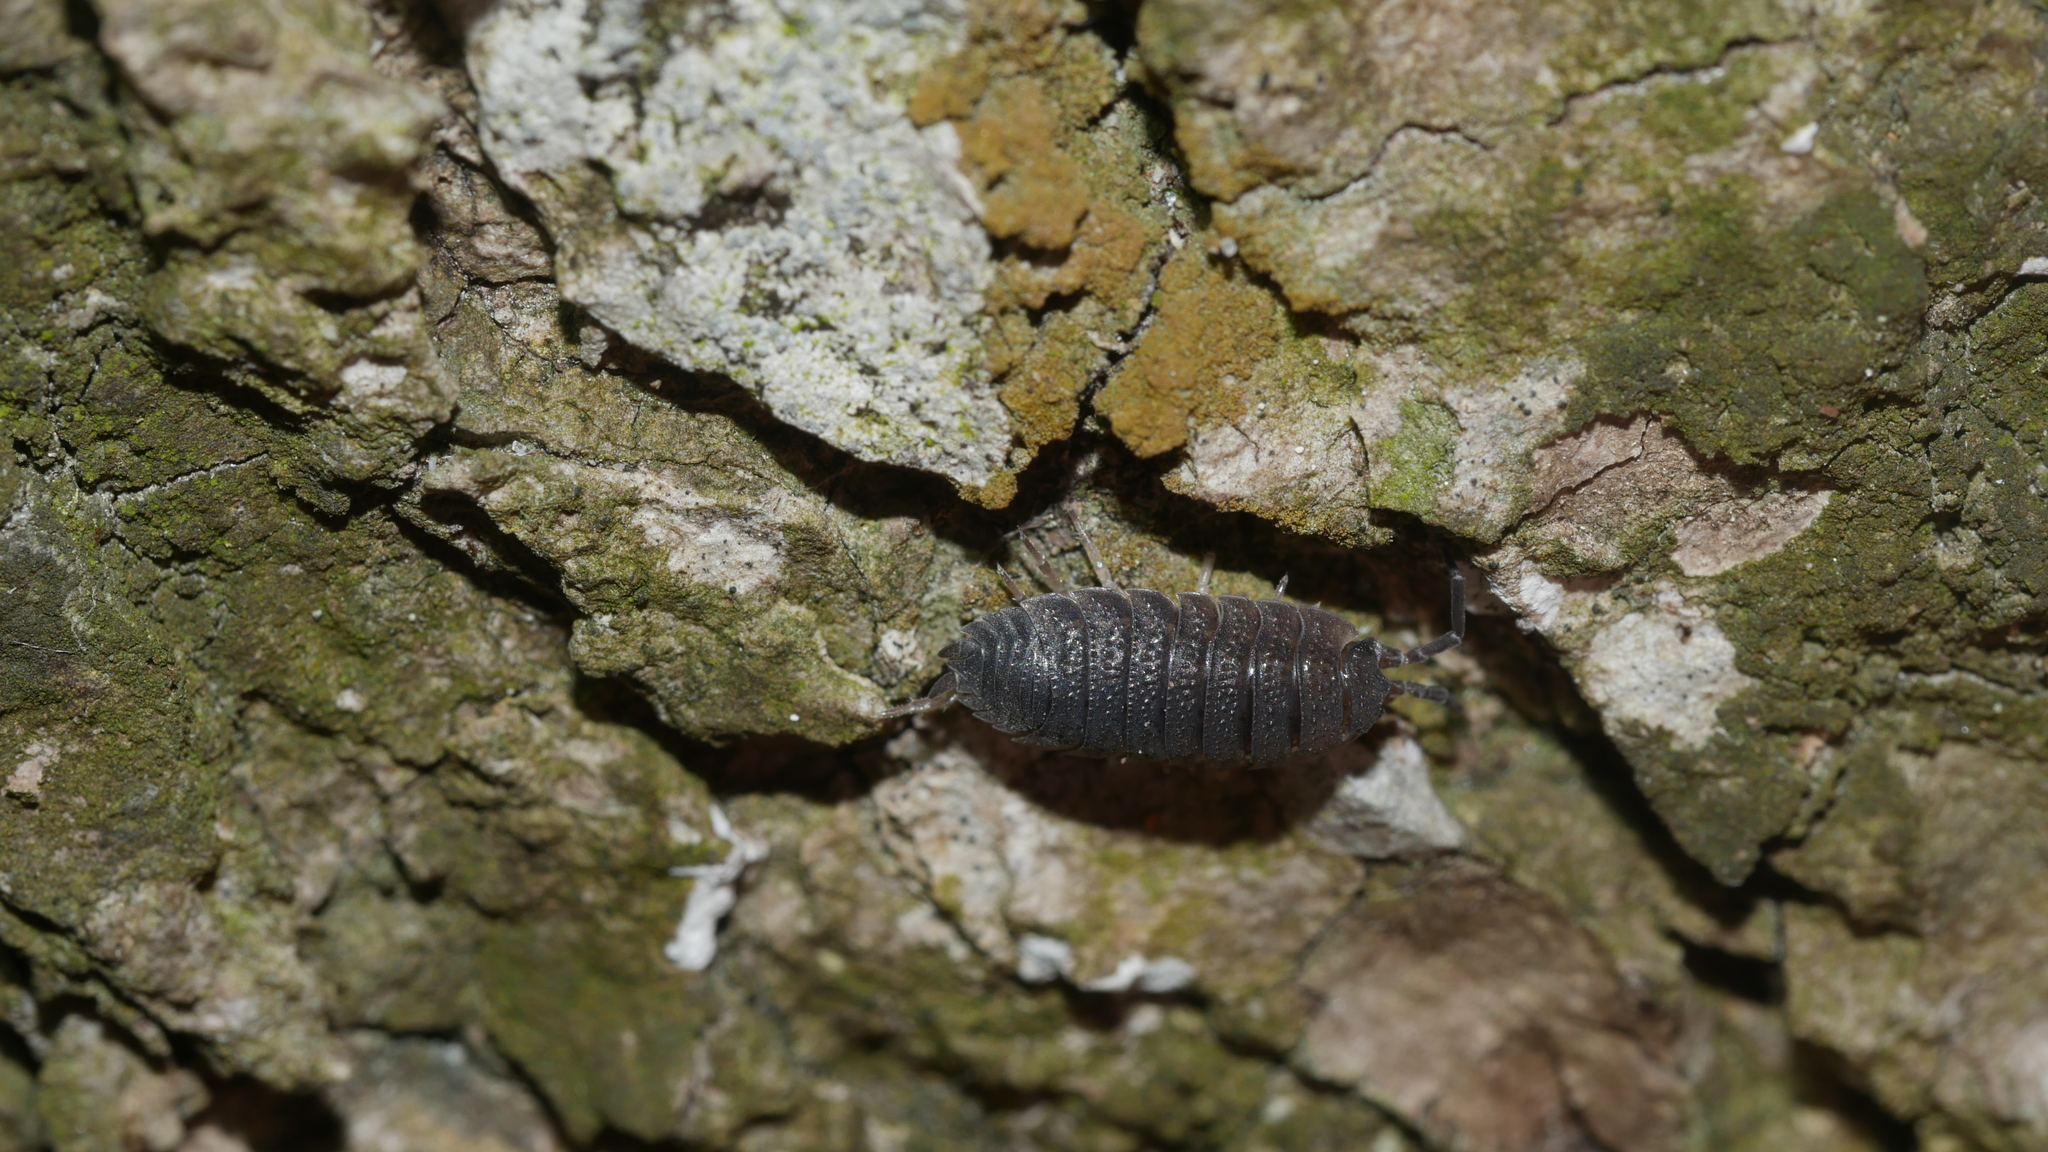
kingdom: Animalia
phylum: Arthropoda
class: Malacostraca
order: Isopoda
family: Porcellionidae
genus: Porcellio
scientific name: Porcellio scaber
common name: Common rough woodlouse
